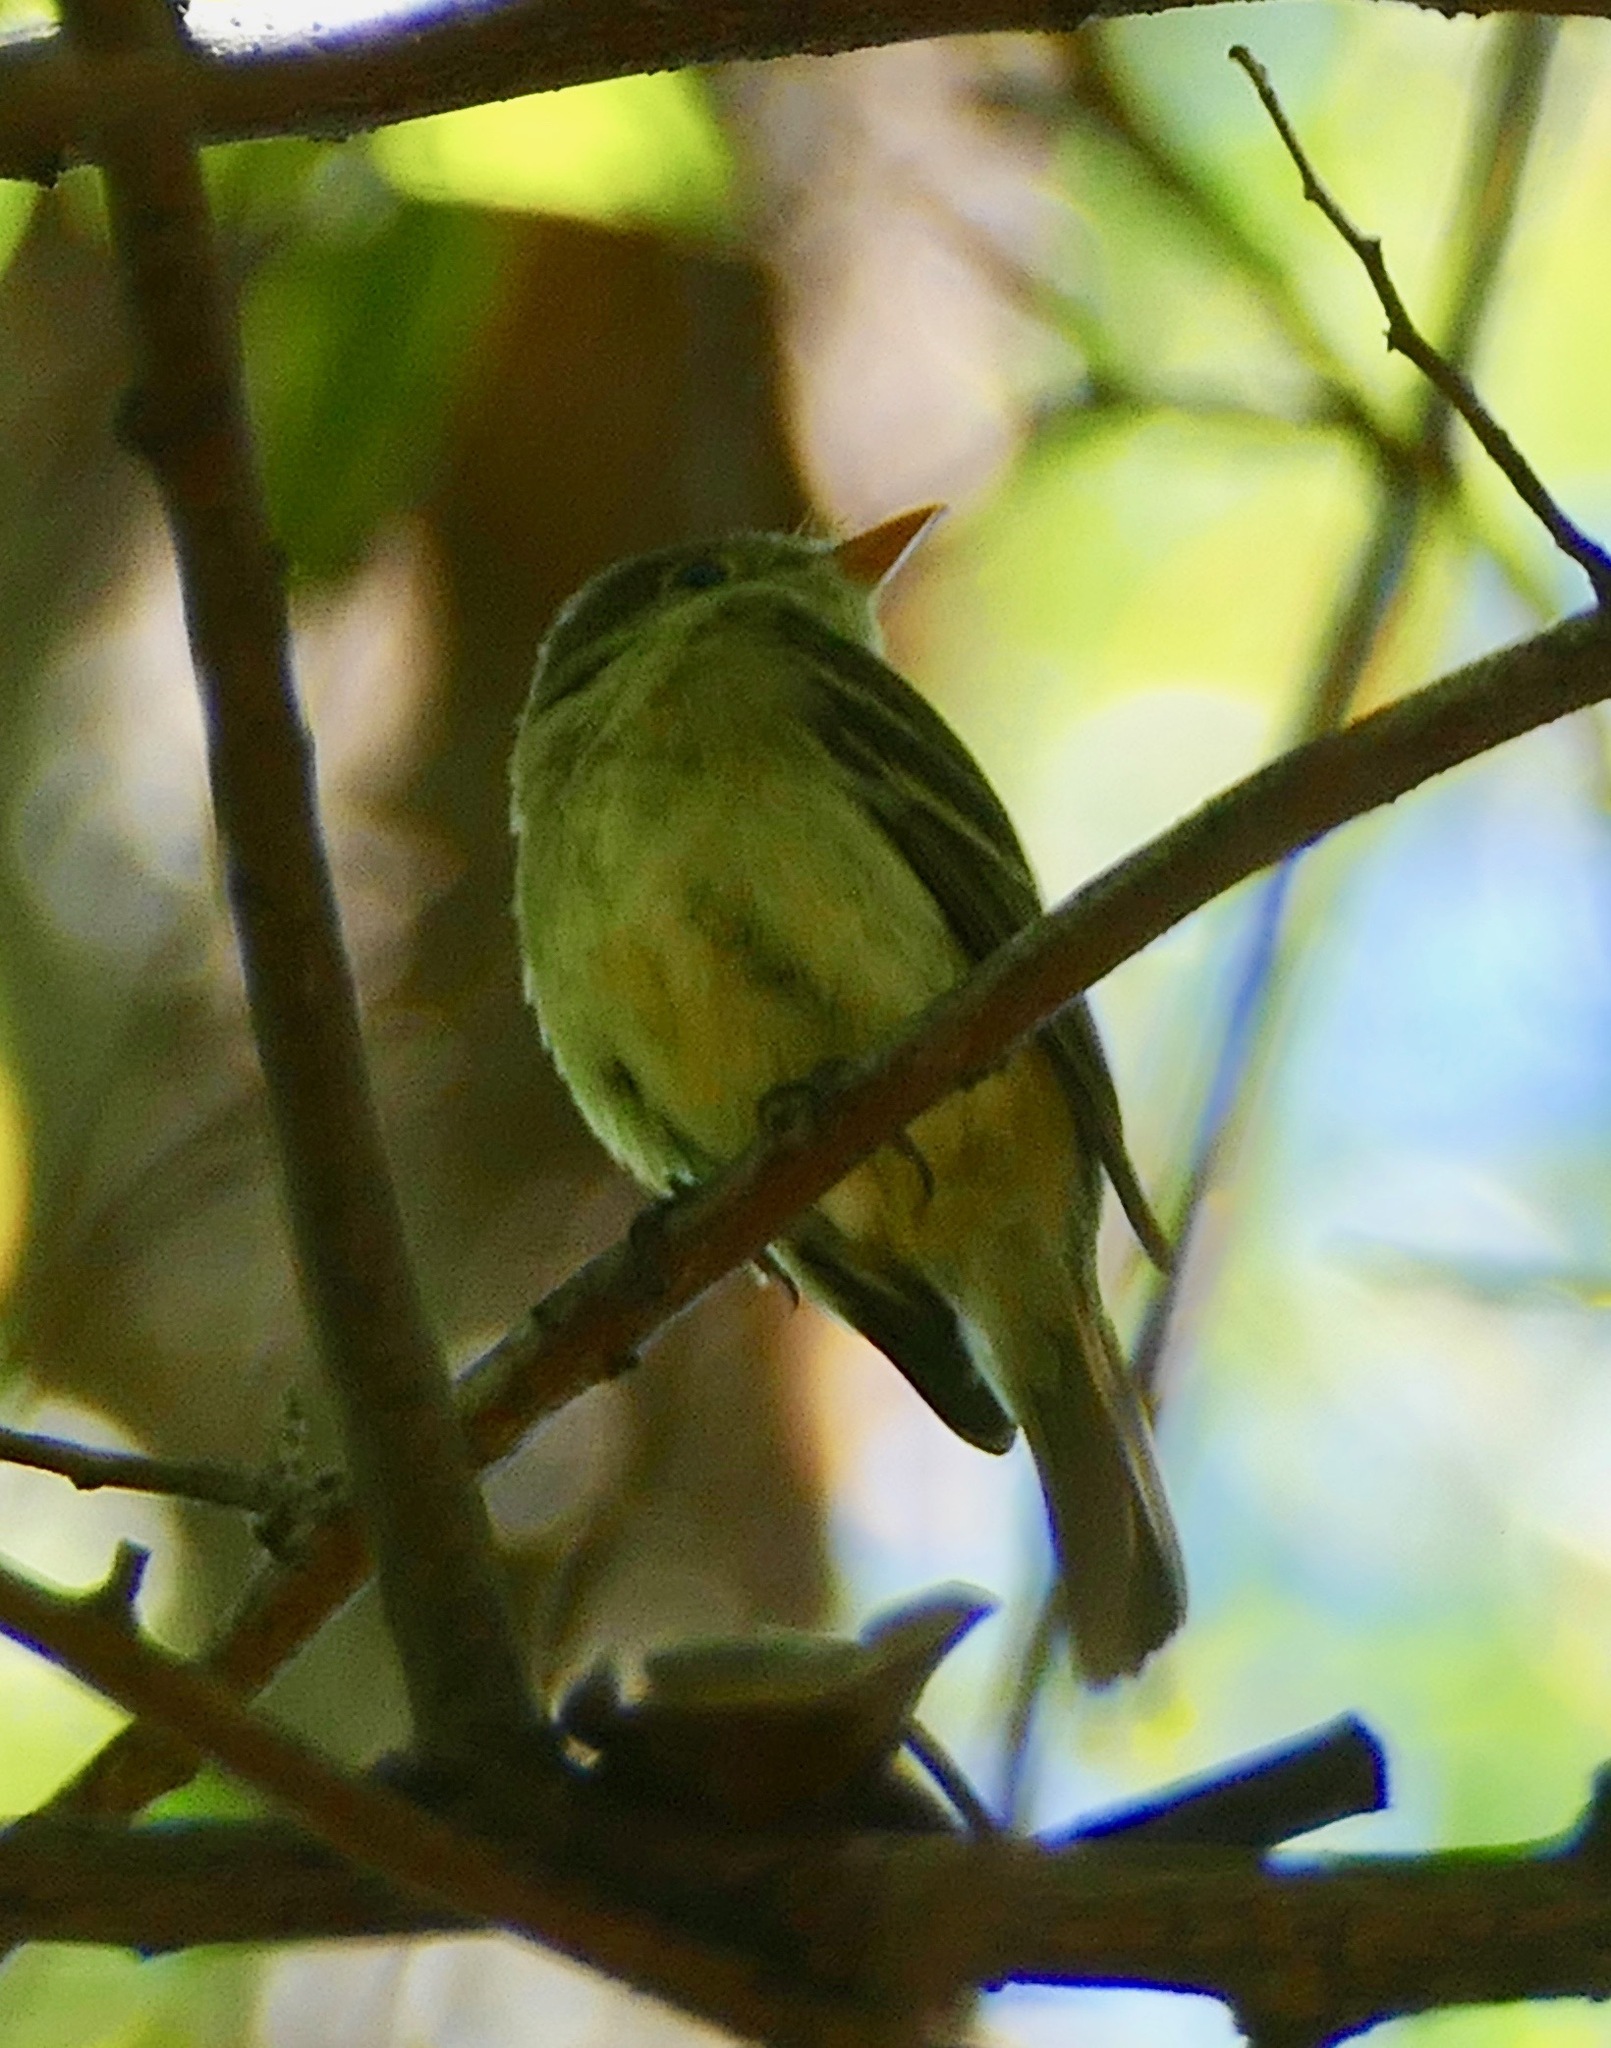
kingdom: Animalia
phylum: Chordata
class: Aves
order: Passeriformes
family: Tyrannidae
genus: Empidonax
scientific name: Empidonax difficilis
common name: Pacific-slope flycatcher
